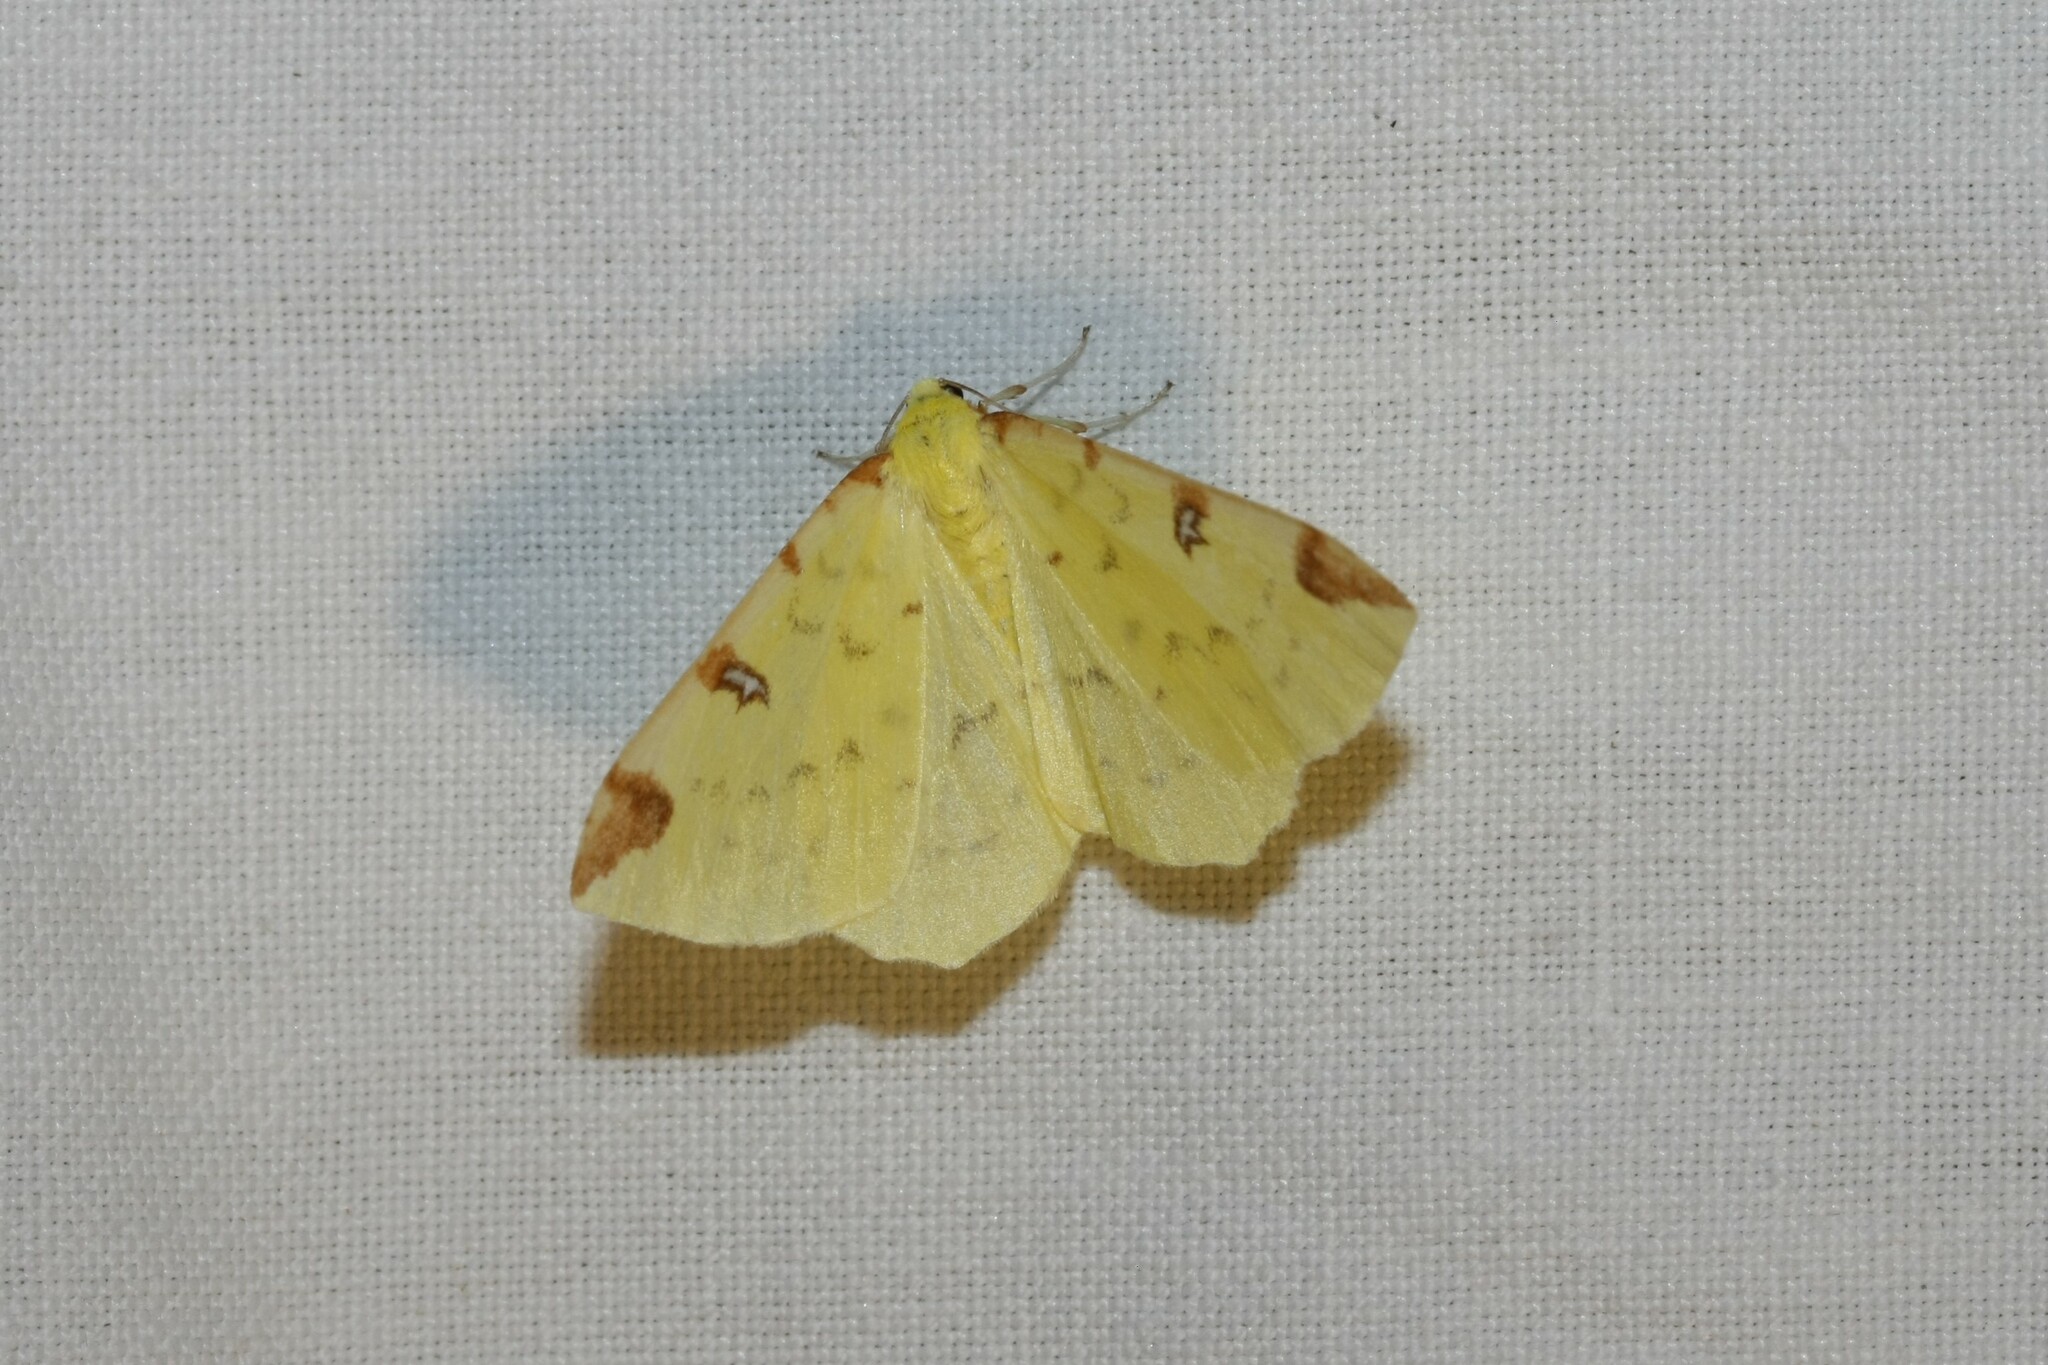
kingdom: Animalia
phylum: Arthropoda
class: Insecta
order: Lepidoptera
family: Geometridae
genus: Opisthograptis
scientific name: Opisthograptis luteolata
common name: Brimstone moth
